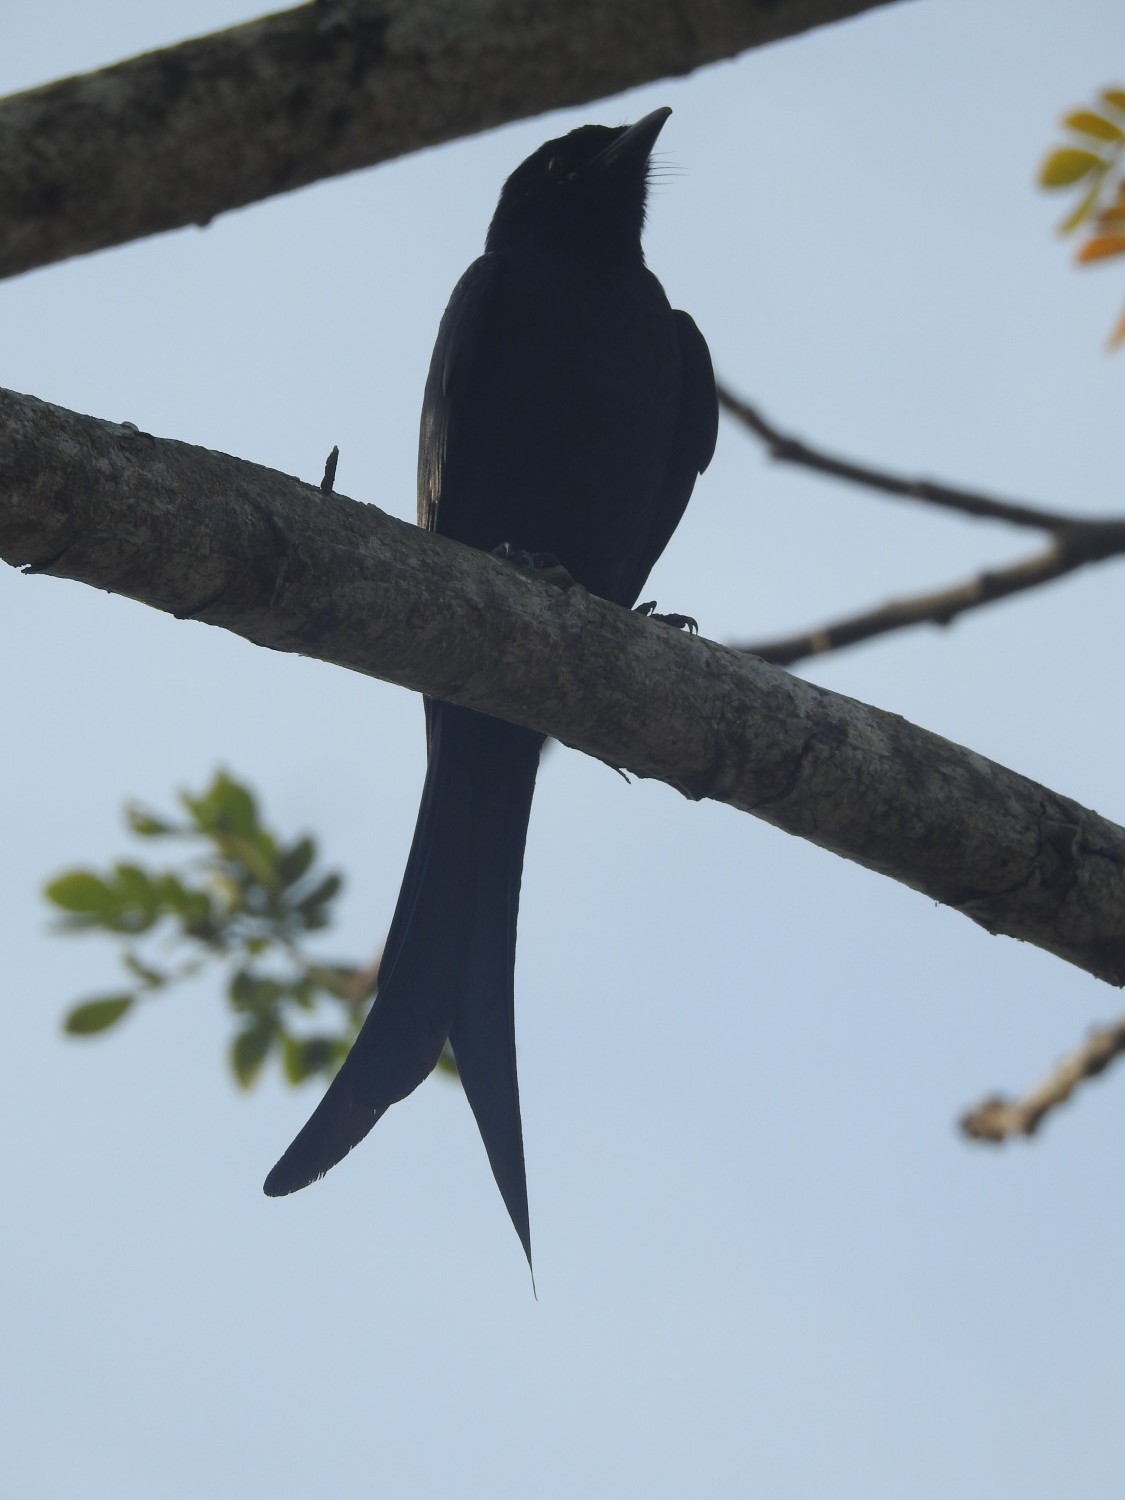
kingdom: Animalia
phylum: Chordata
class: Aves
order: Passeriformes
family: Dicruridae
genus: Dicrurus
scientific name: Dicrurus macrocercus
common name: Black drongo
